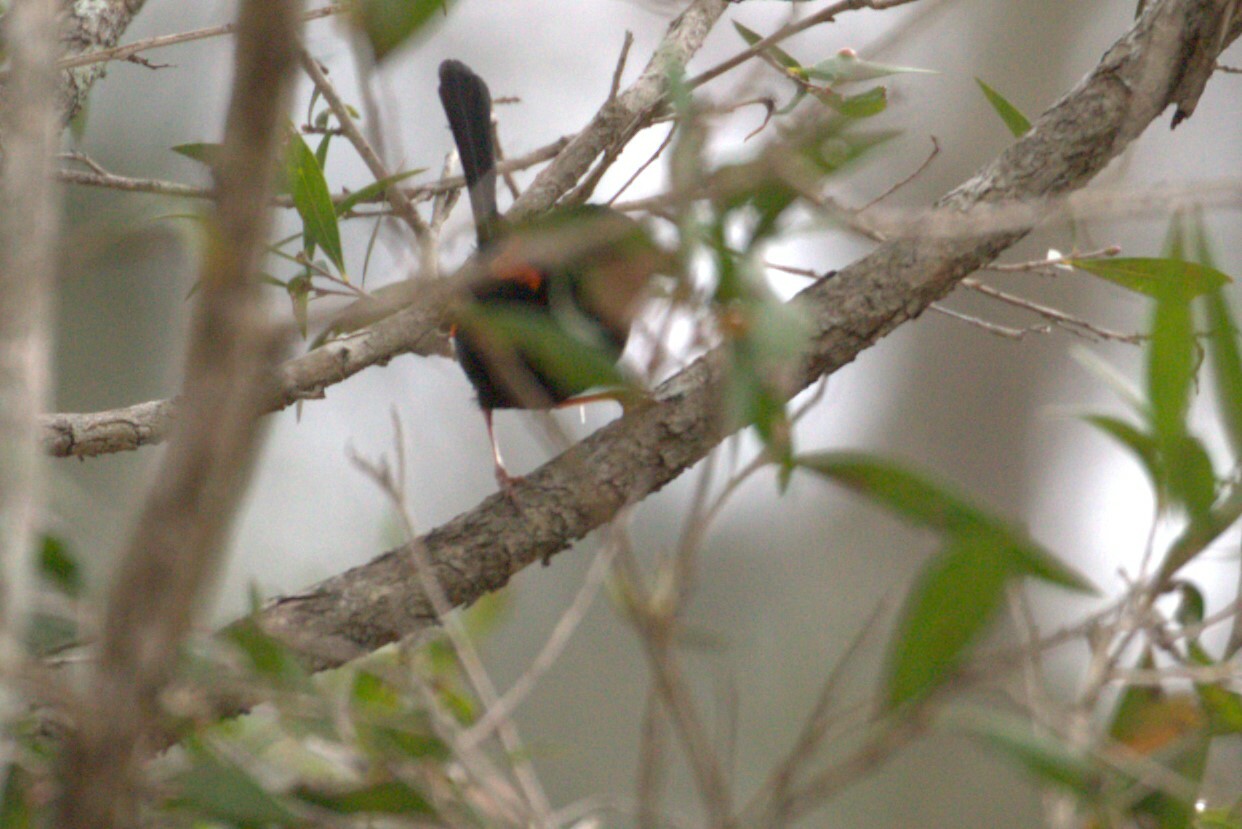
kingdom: Animalia
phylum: Chordata
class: Aves
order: Passeriformes
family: Maluridae
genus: Malurus
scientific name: Malurus melanocephalus
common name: Red-backed fairywren
